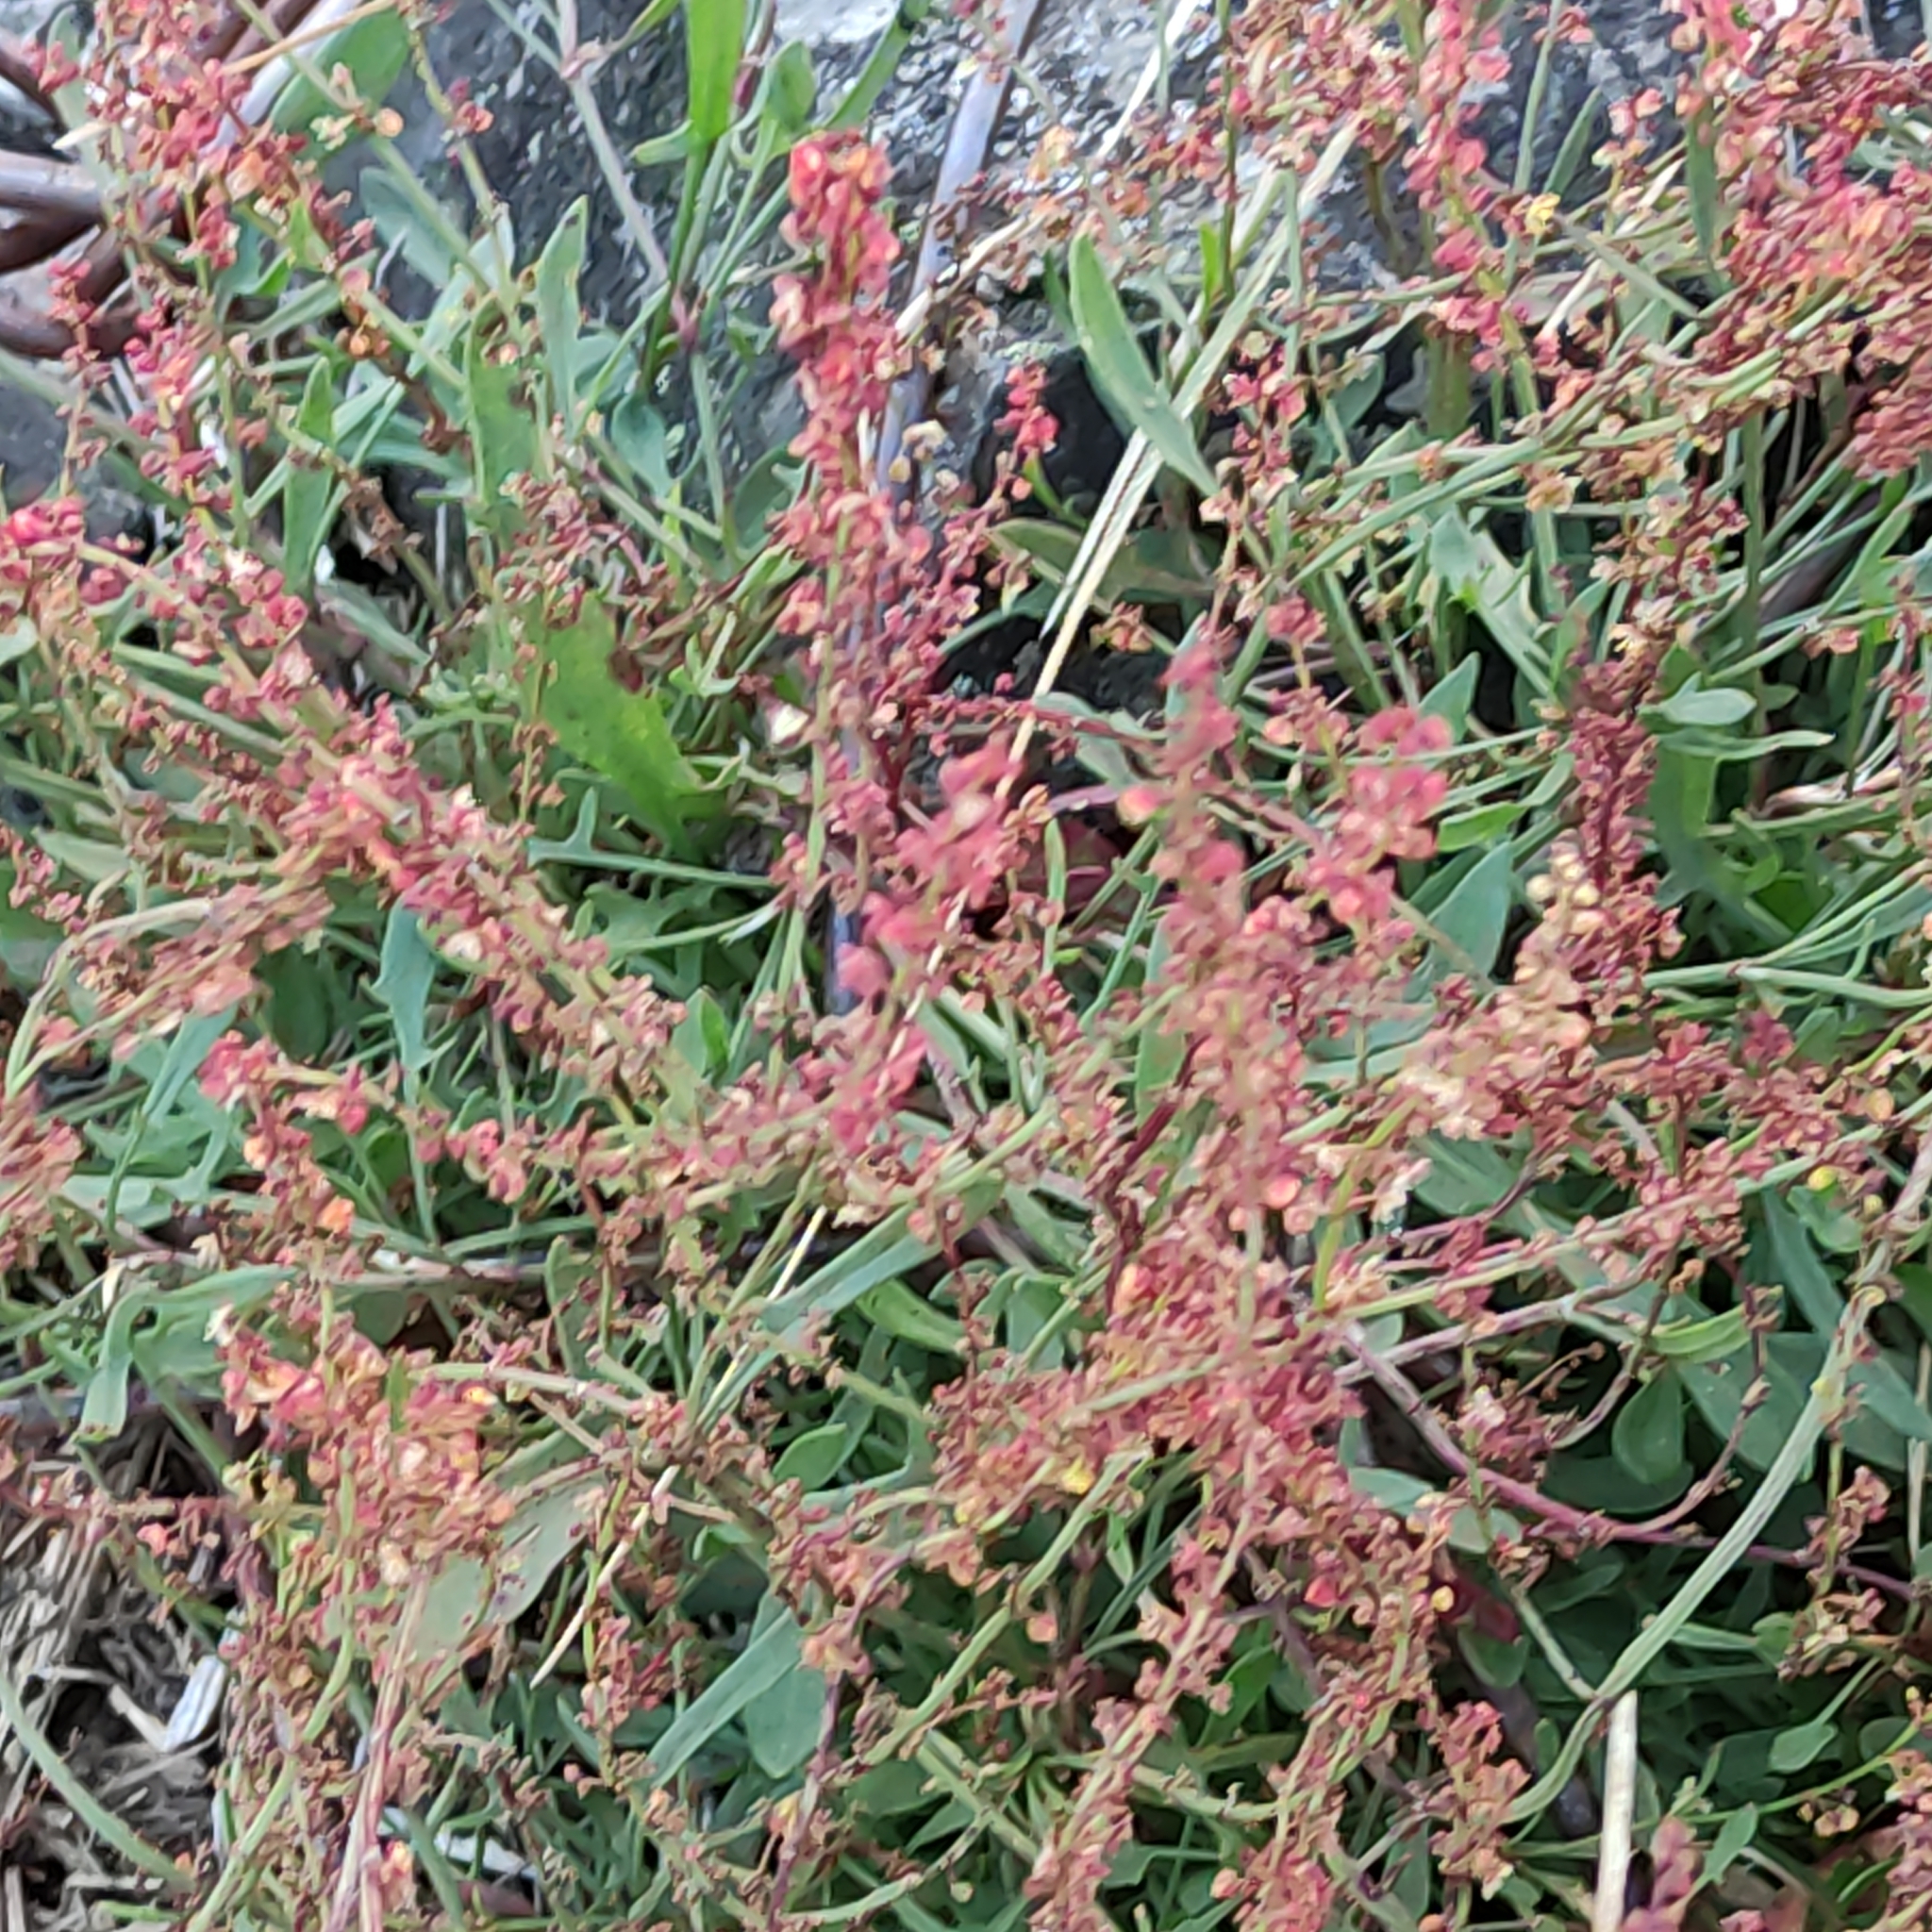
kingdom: Plantae
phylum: Tracheophyta
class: Magnoliopsida
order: Caryophyllales
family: Polygonaceae
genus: Rumex
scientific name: Rumex acetosella
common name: Common sheep sorrel
